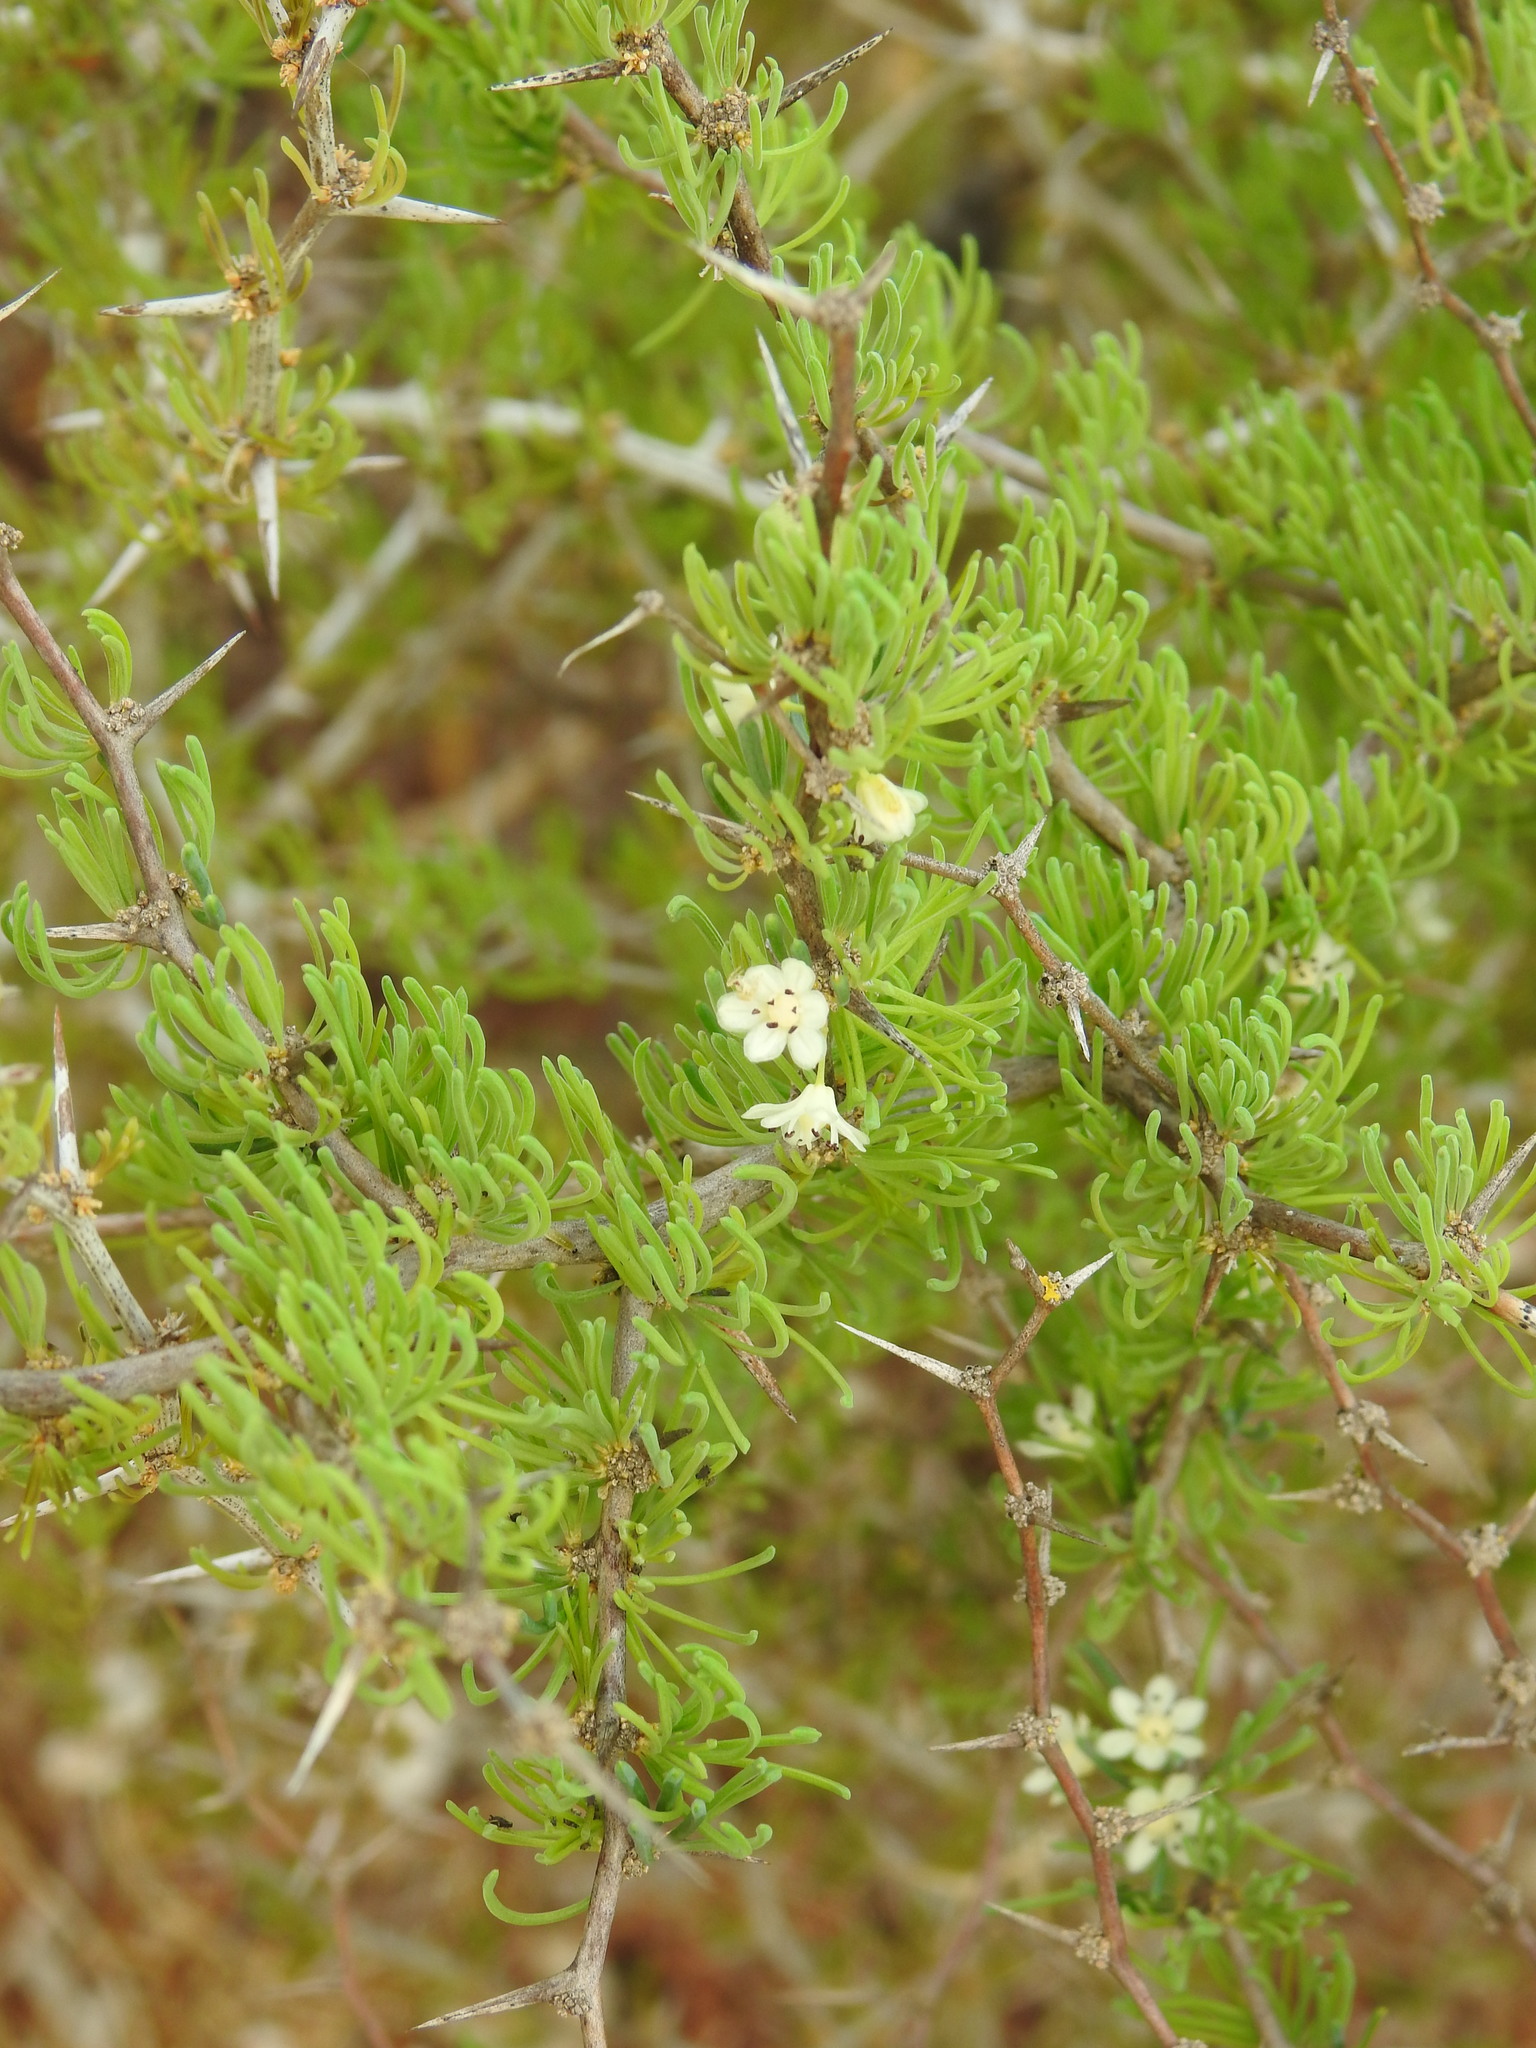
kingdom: Plantae
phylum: Tracheophyta
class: Liliopsida
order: Asparagales
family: Asparagaceae
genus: Asparagus
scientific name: Asparagus albus
